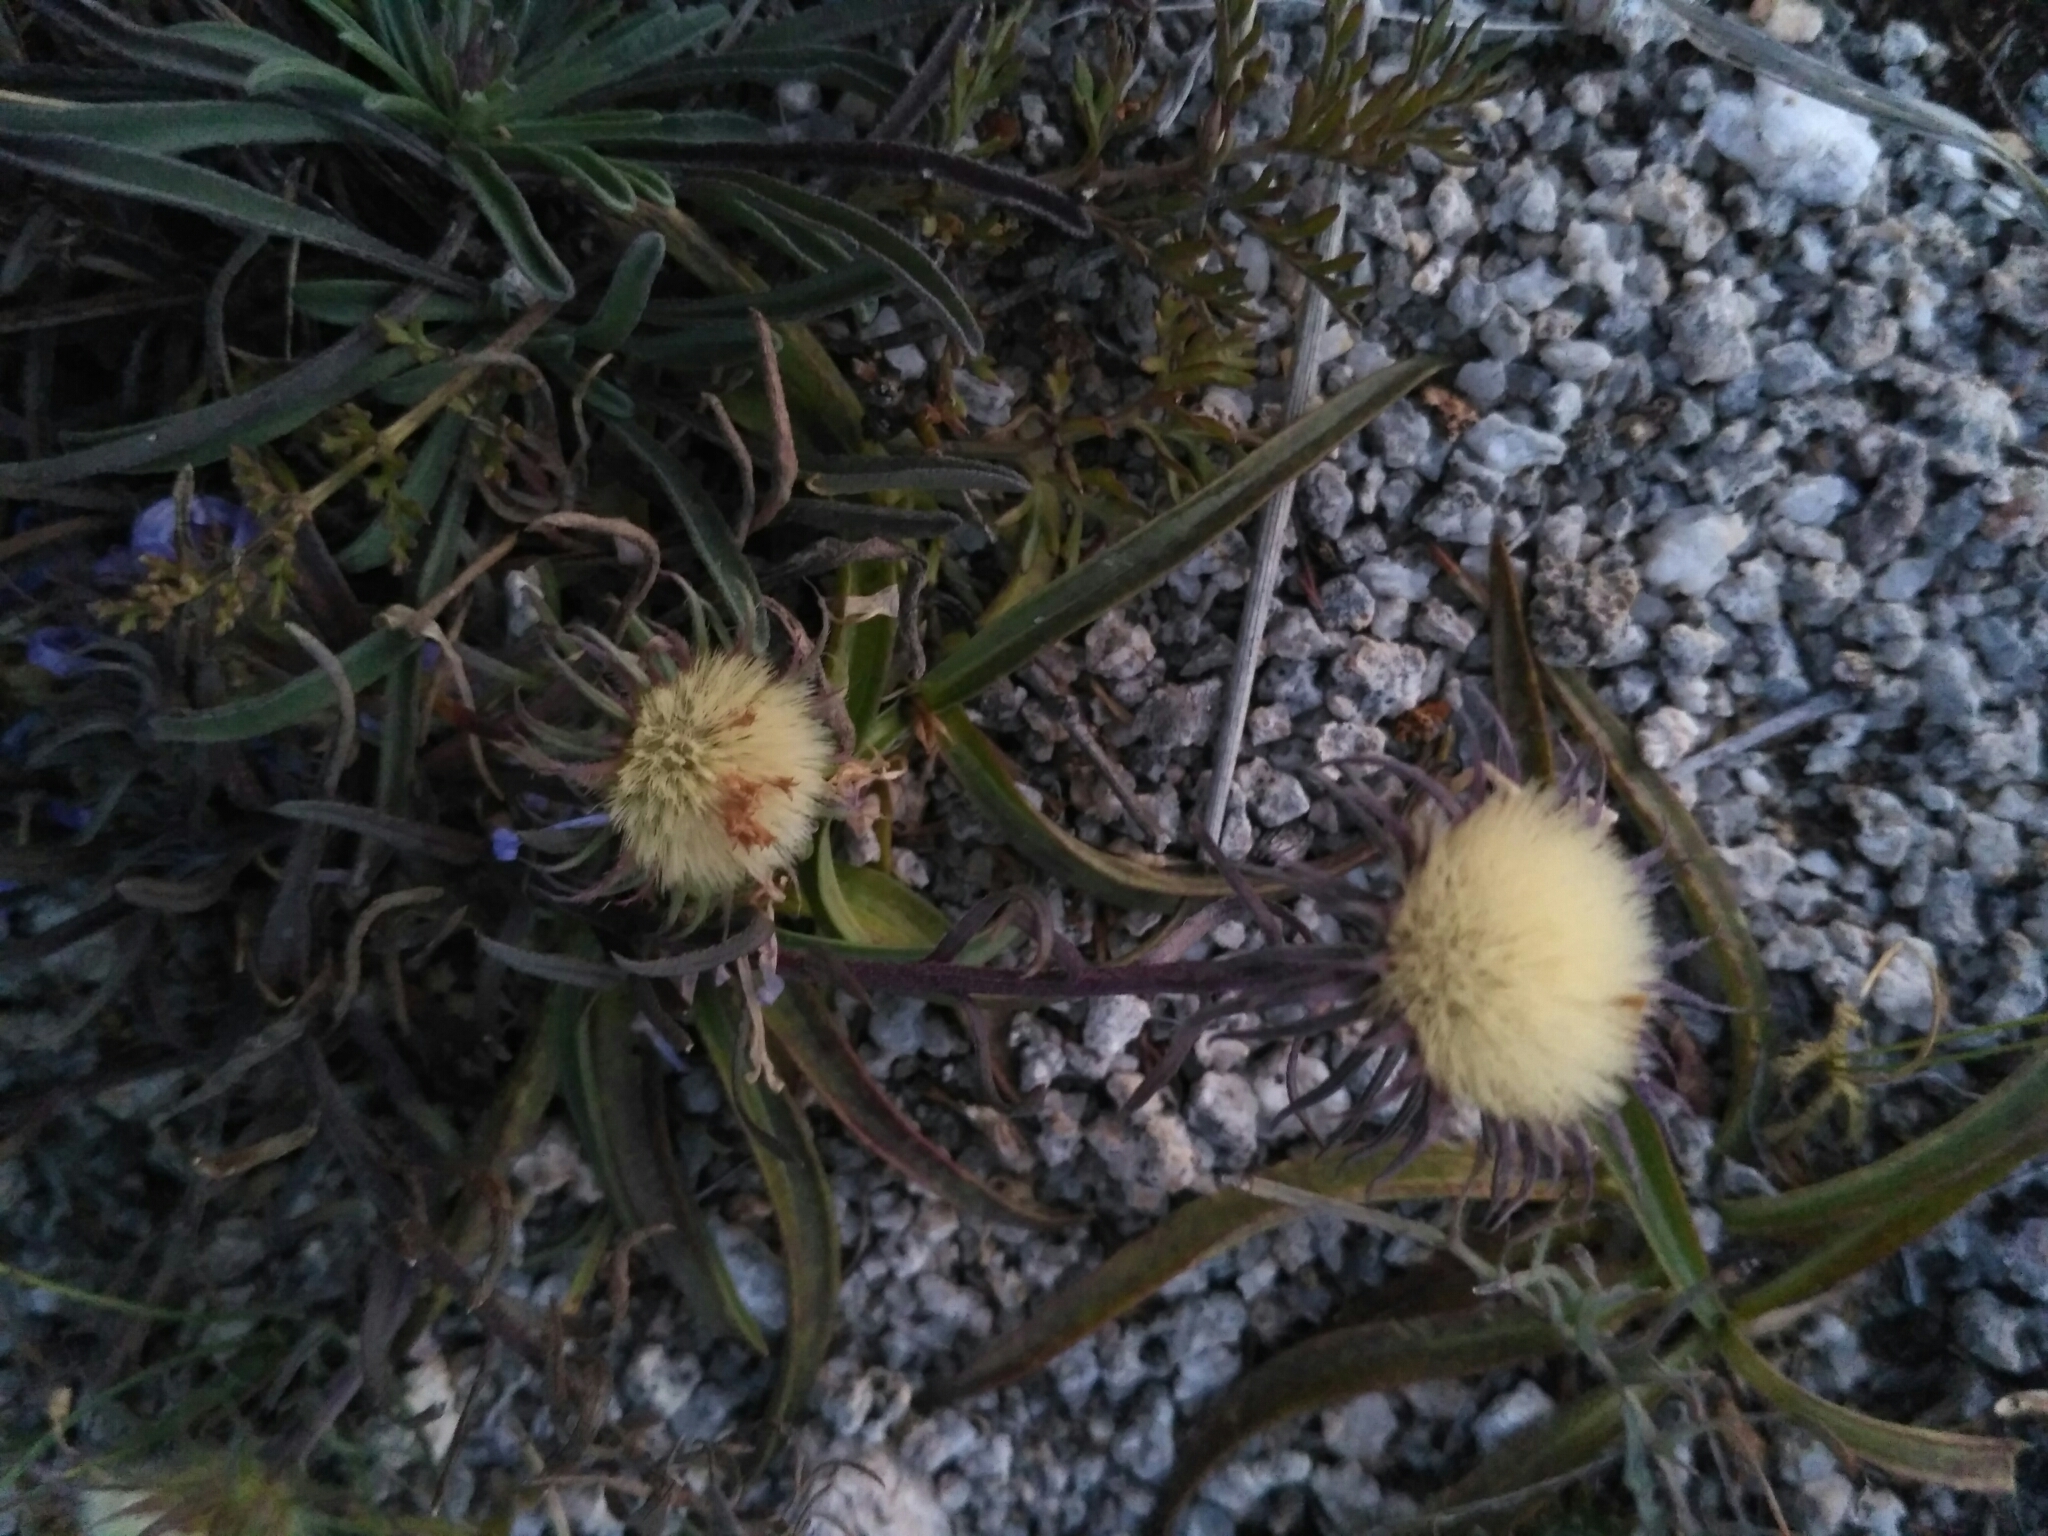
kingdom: Plantae
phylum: Tracheophyta
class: Magnoliopsida
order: Asterales
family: Asteraceae
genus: Heteropappus
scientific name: Heteropappus altaicus
